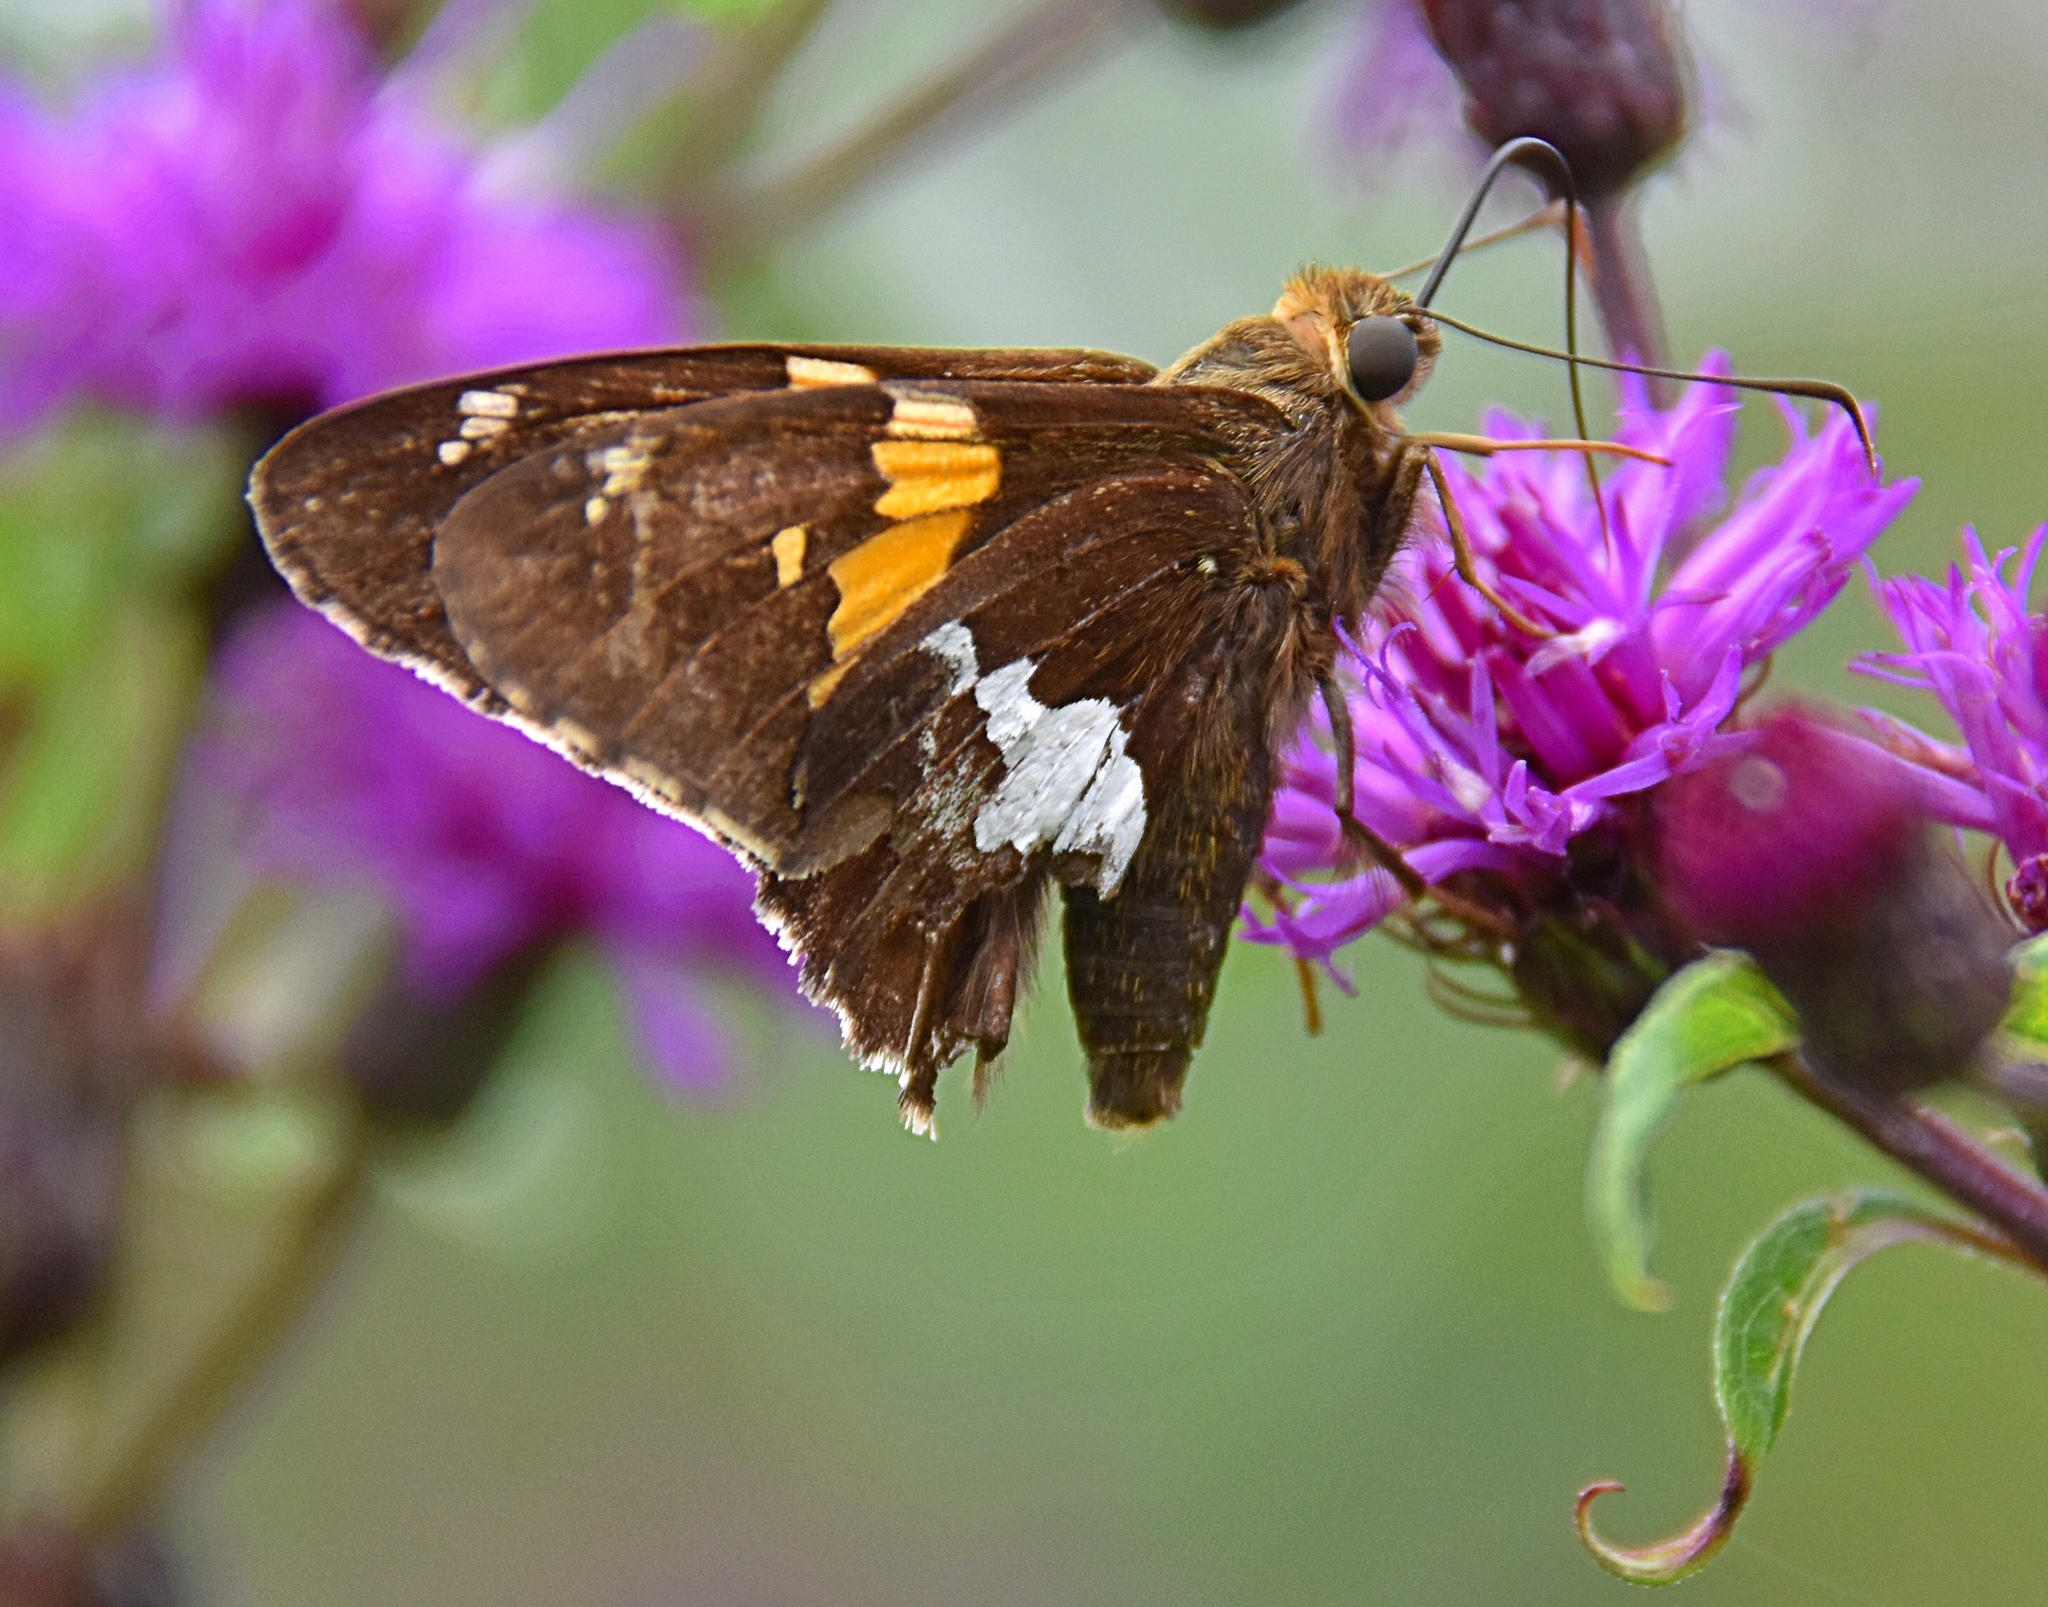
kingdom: Animalia
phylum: Arthropoda
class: Insecta
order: Lepidoptera
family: Hesperiidae
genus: Epargyreus
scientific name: Epargyreus clarus
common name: Silver-spotted skipper
